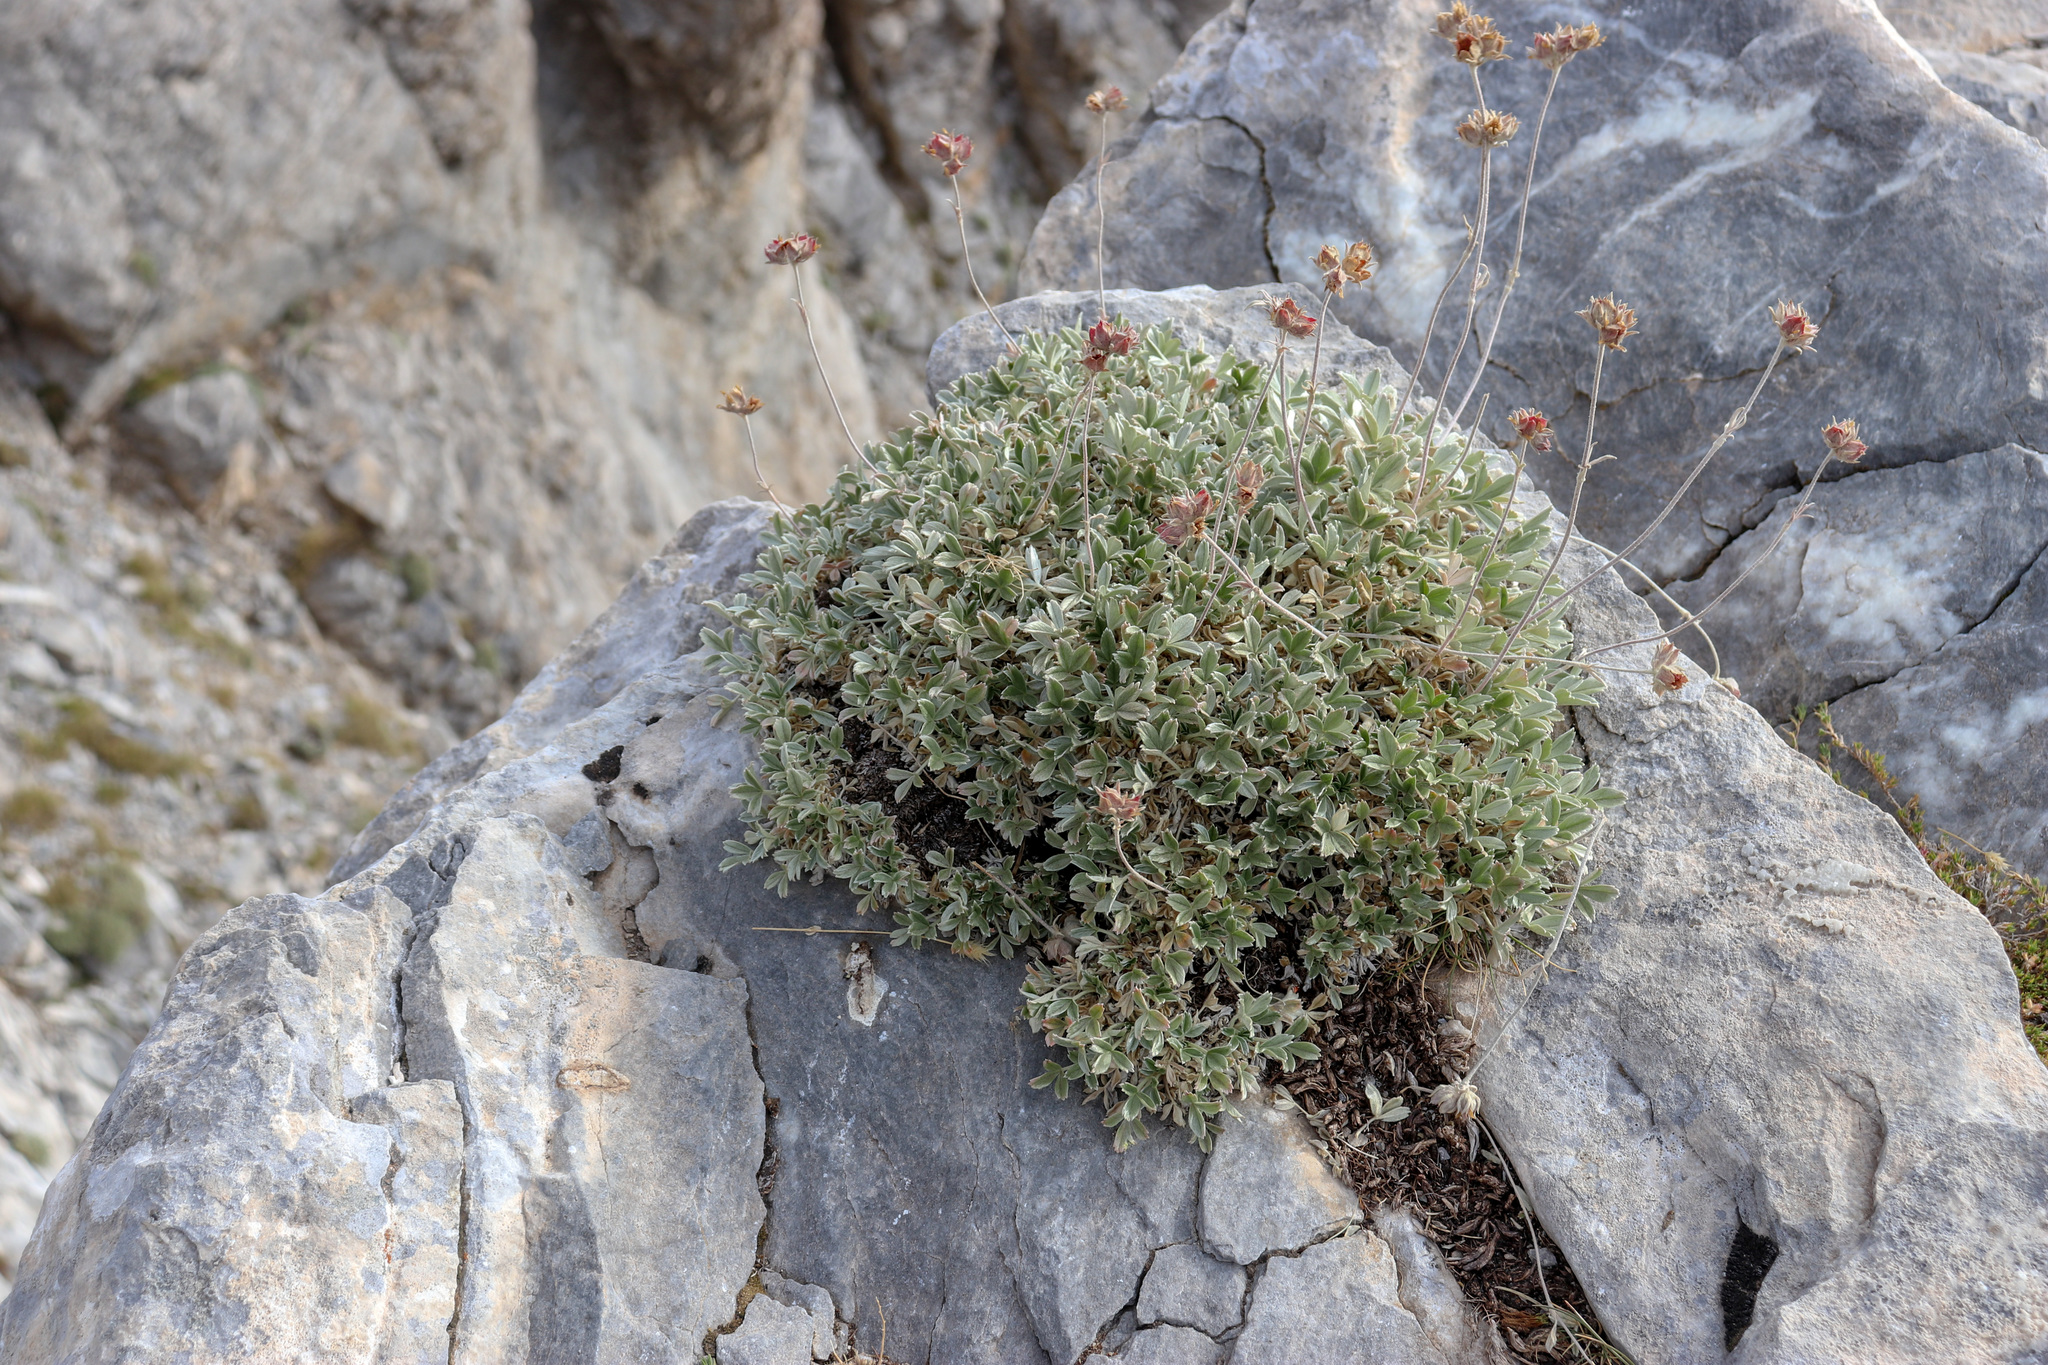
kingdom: Plantae
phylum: Tracheophyta
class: Magnoliopsida
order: Rosales
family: Rosaceae
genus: Potentilla
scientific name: Potentilla deorum
